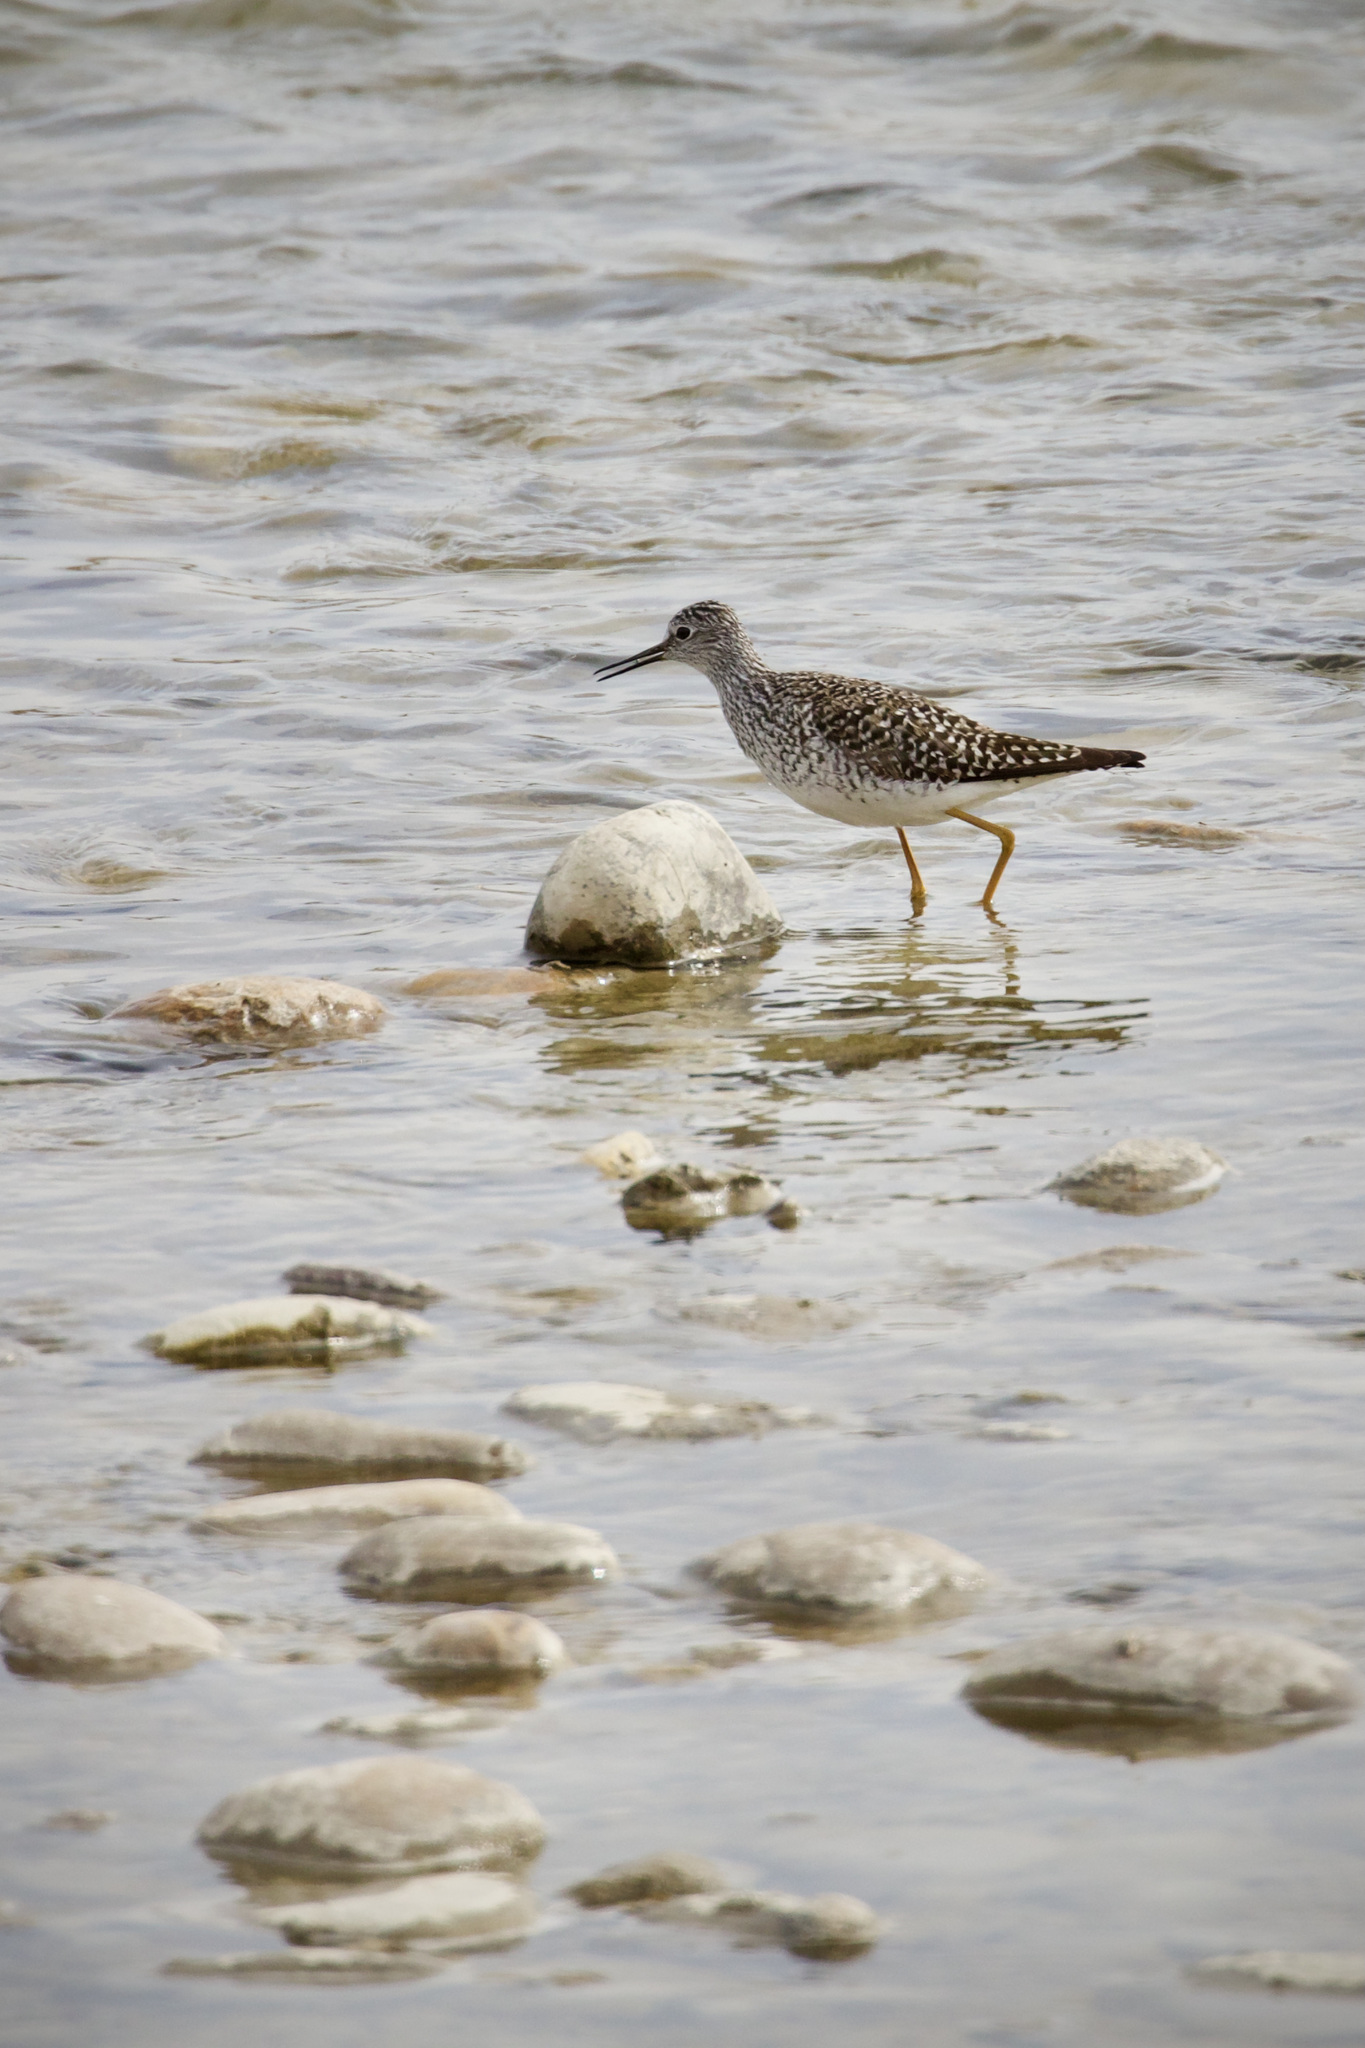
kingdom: Animalia
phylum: Chordata
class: Aves
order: Charadriiformes
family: Scolopacidae
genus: Tringa
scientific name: Tringa flavipes
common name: Lesser yellowlegs
